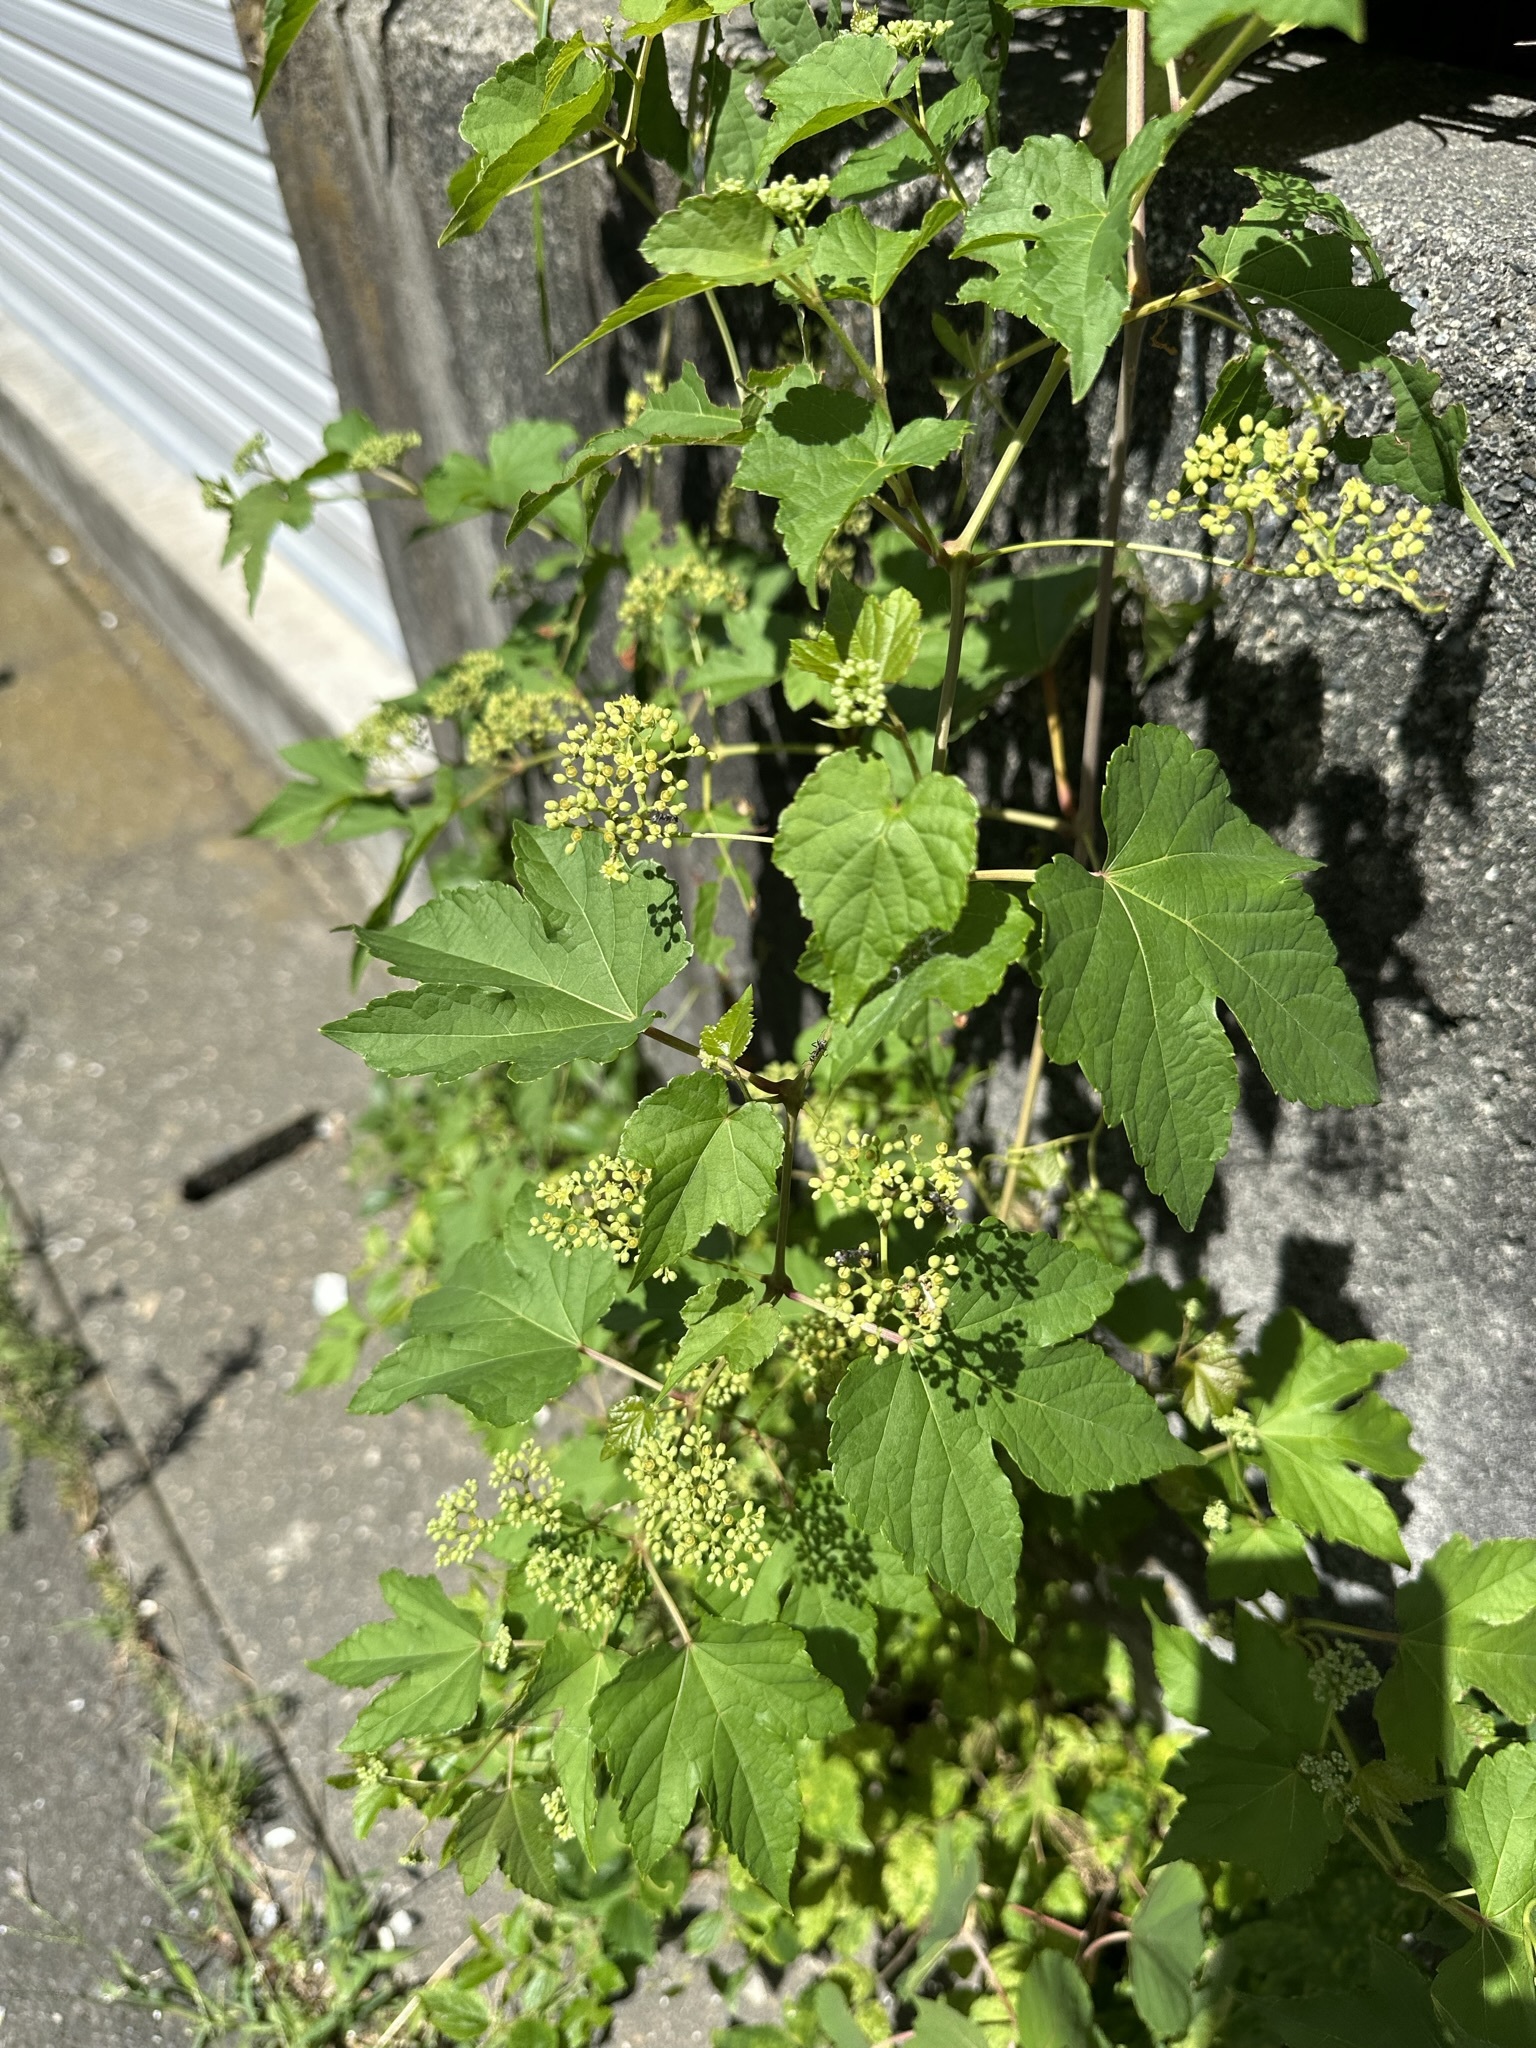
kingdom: Plantae
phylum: Tracheophyta
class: Magnoliopsida
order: Vitales
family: Vitaceae
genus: Ampelopsis
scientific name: Ampelopsis glandulosa
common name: Amur peppervine
